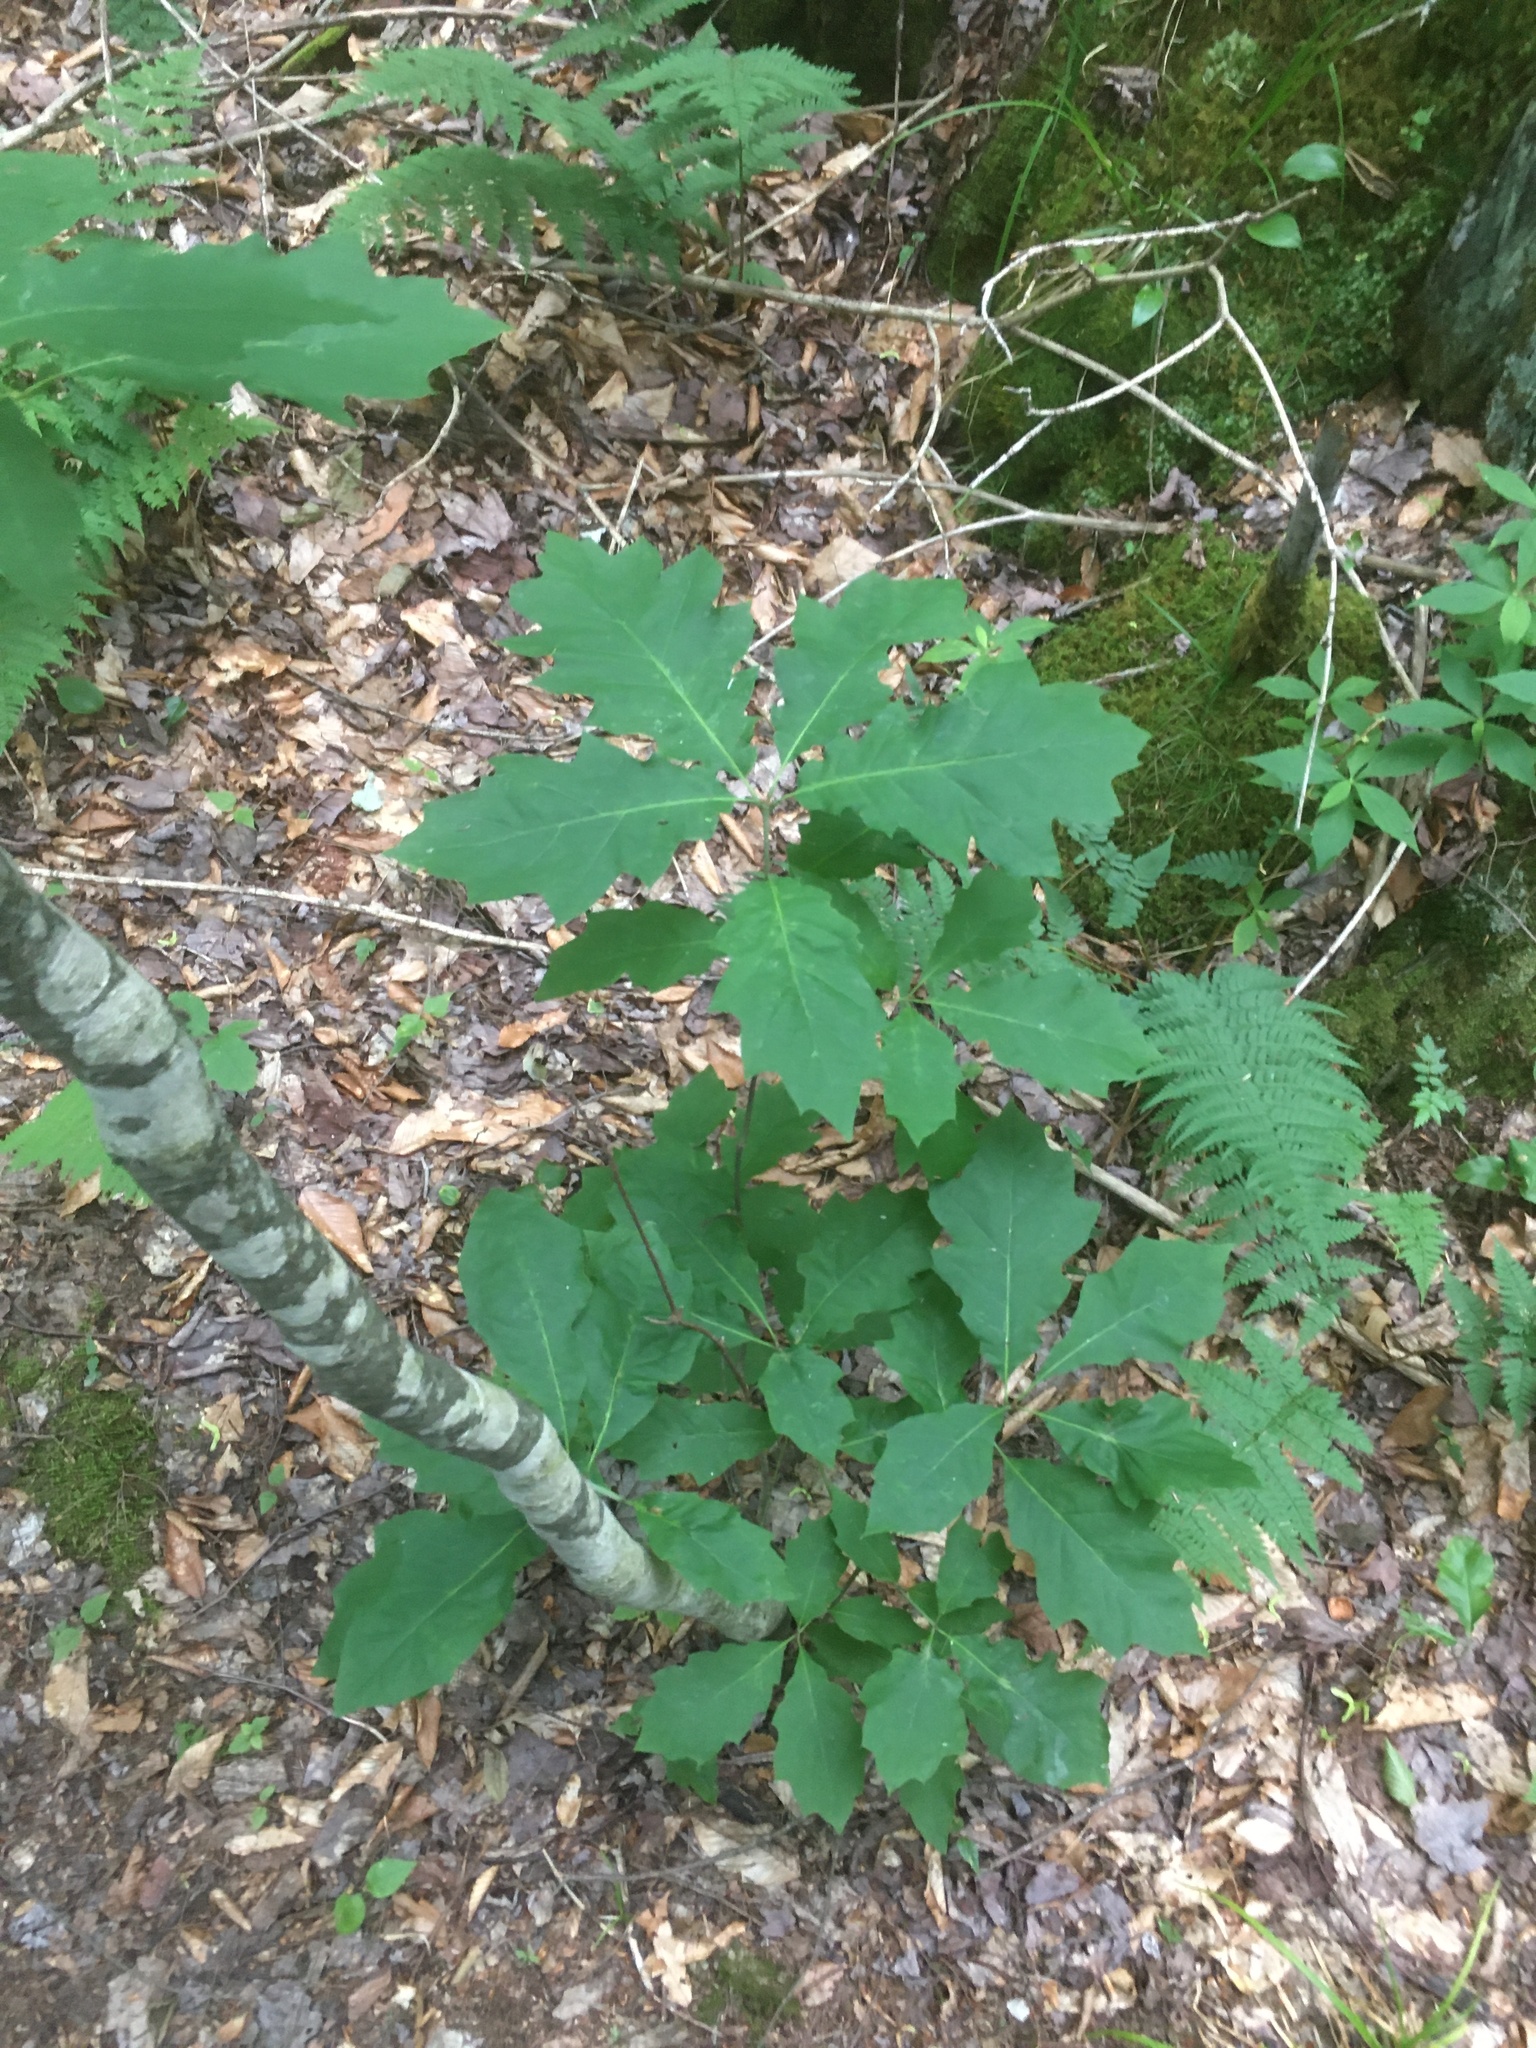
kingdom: Plantae
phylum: Tracheophyta
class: Magnoliopsida
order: Fagales
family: Fagaceae
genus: Quercus
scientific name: Quercus rubra
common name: Red oak
